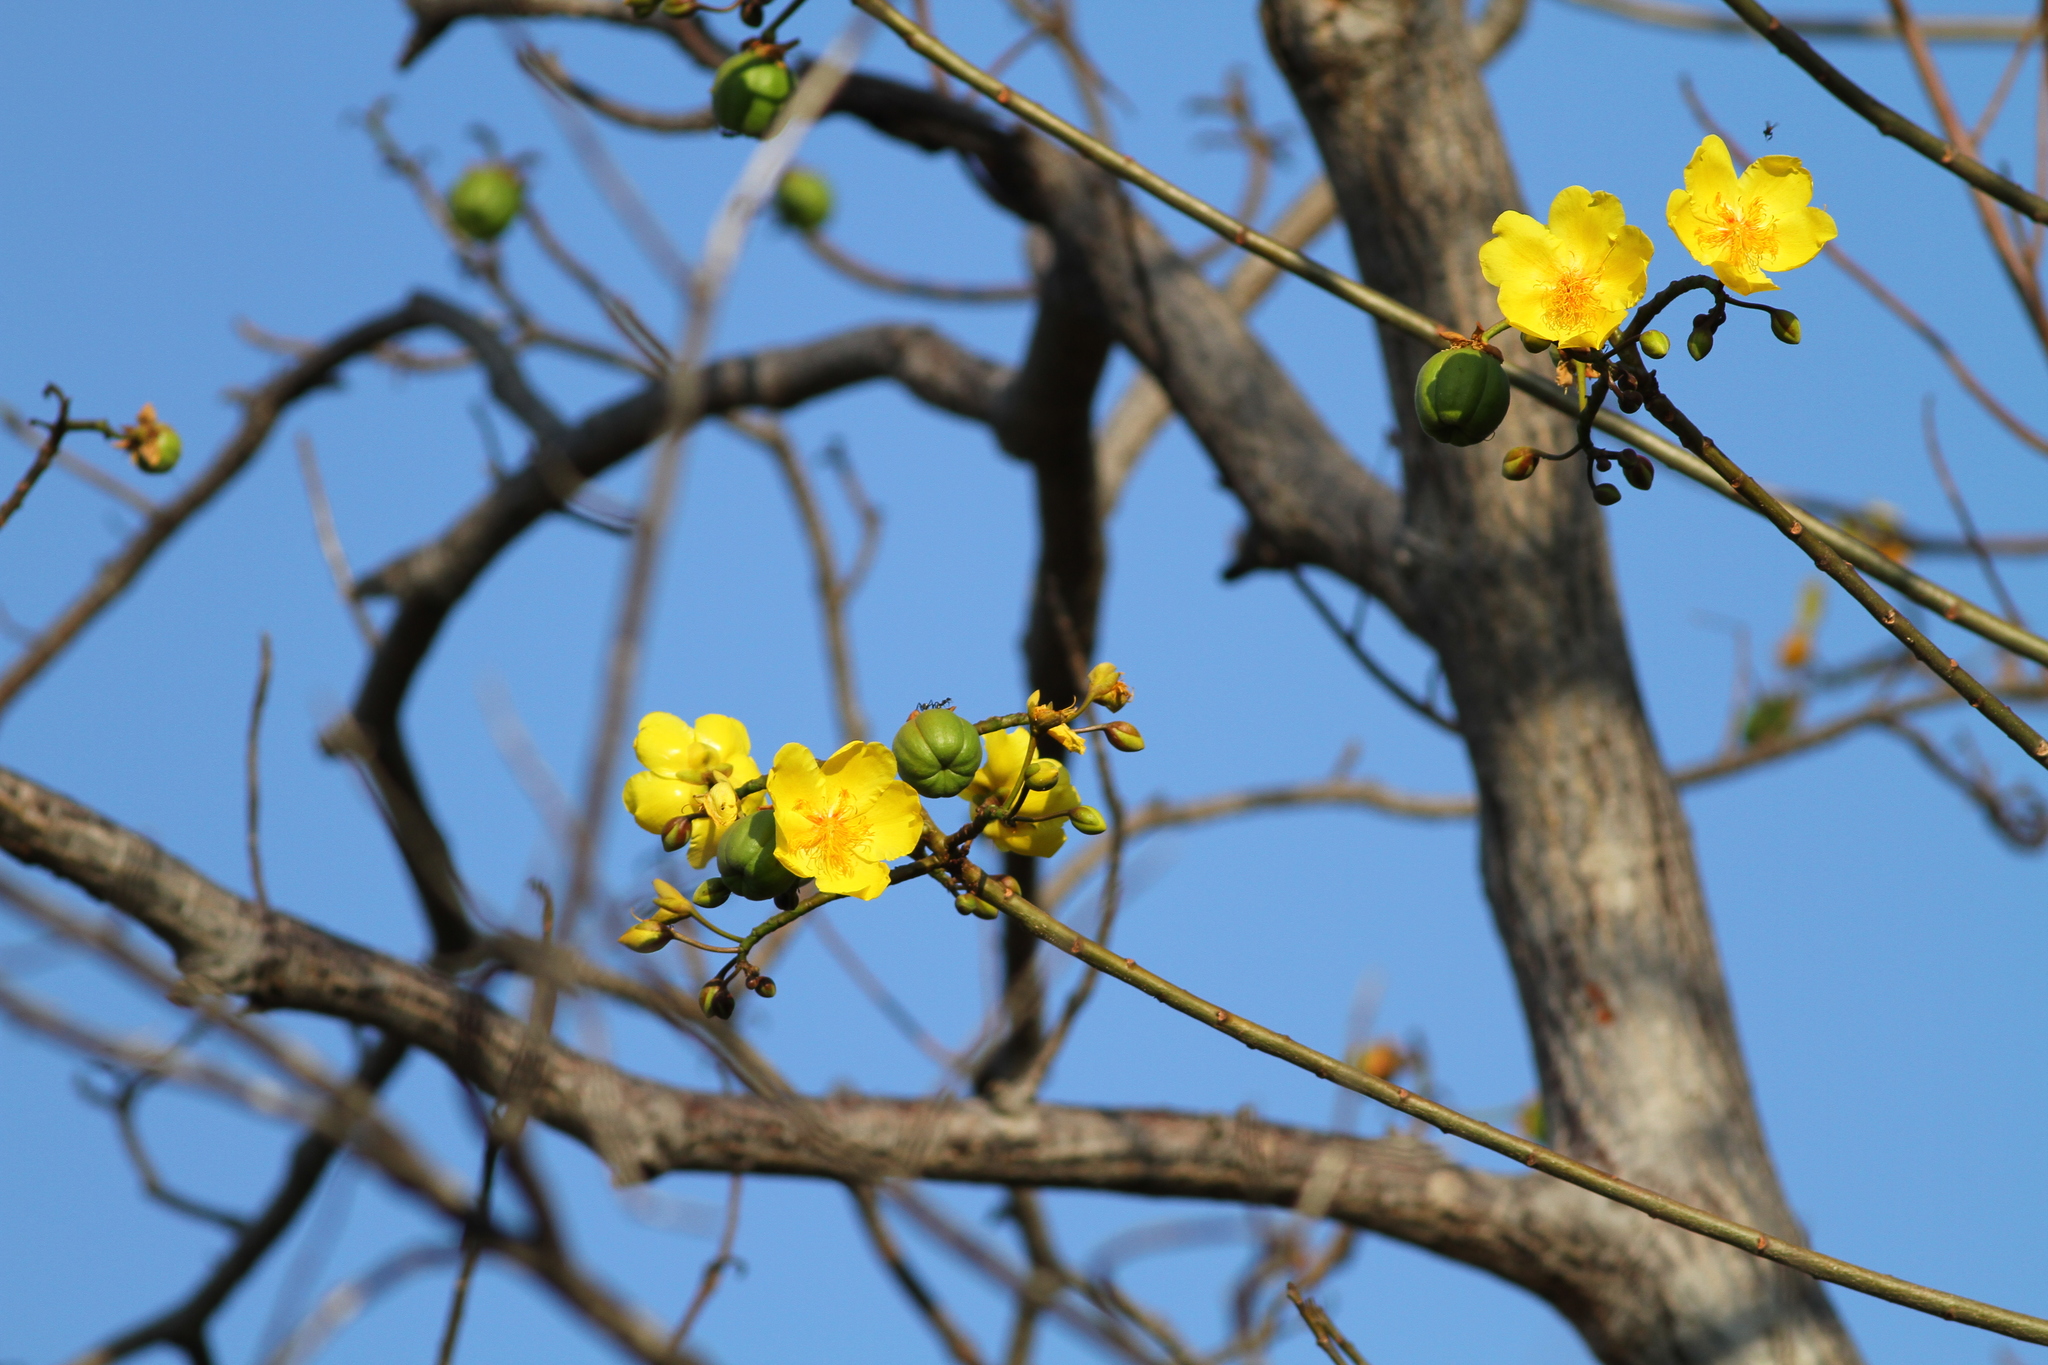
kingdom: Plantae
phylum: Tracheophyta
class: Magnoliopsida
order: Malvales
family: Cochlospermaceae
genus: Cochlospermum
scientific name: Cochlospermum vitifolium
